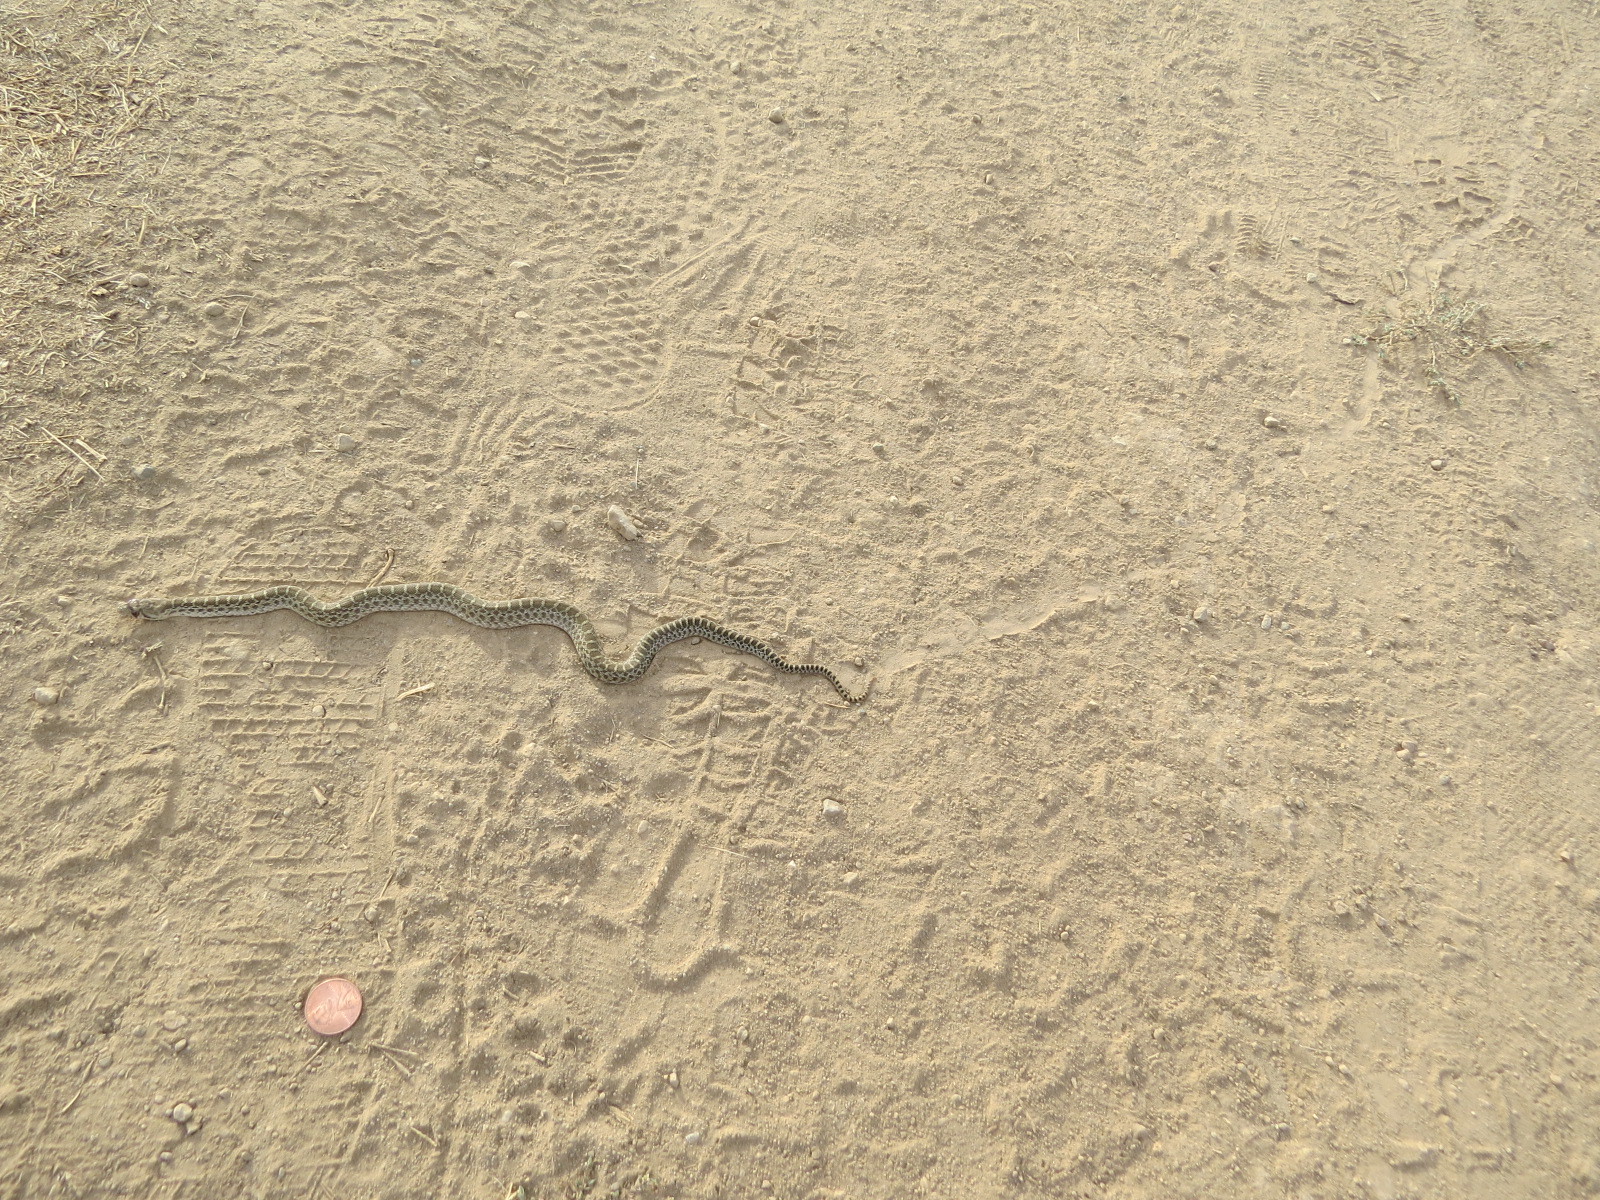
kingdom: Animalia
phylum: Chordata
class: Squamata
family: Colubridae
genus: Pituophis
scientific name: Pituophis catenifer
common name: Gopher snake
